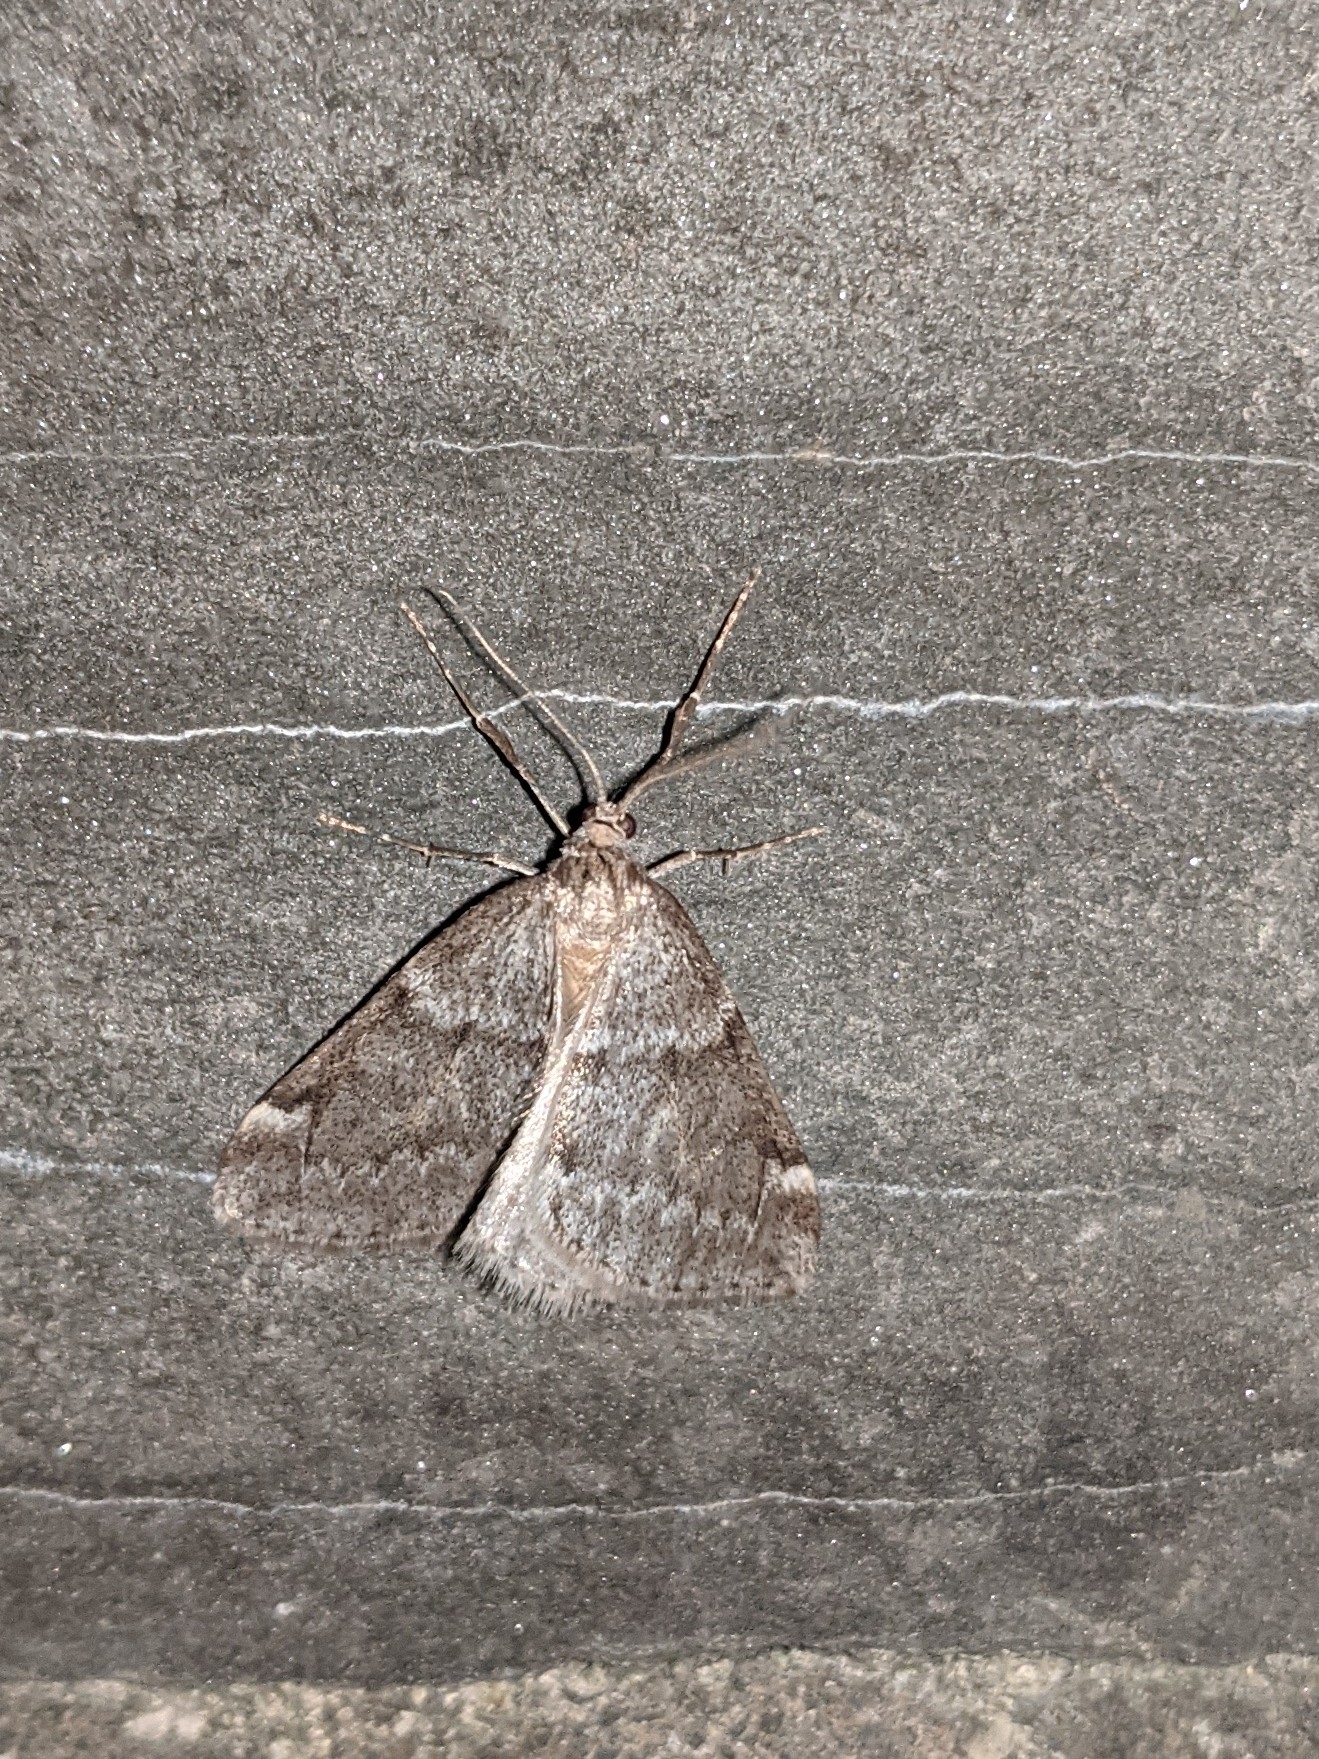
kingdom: Animalia
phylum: Arthropoda
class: Insecta
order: Lepidoptera
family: Geometridae
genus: Alsophila
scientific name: Alsophila pometaria
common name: Fall cankerworm
